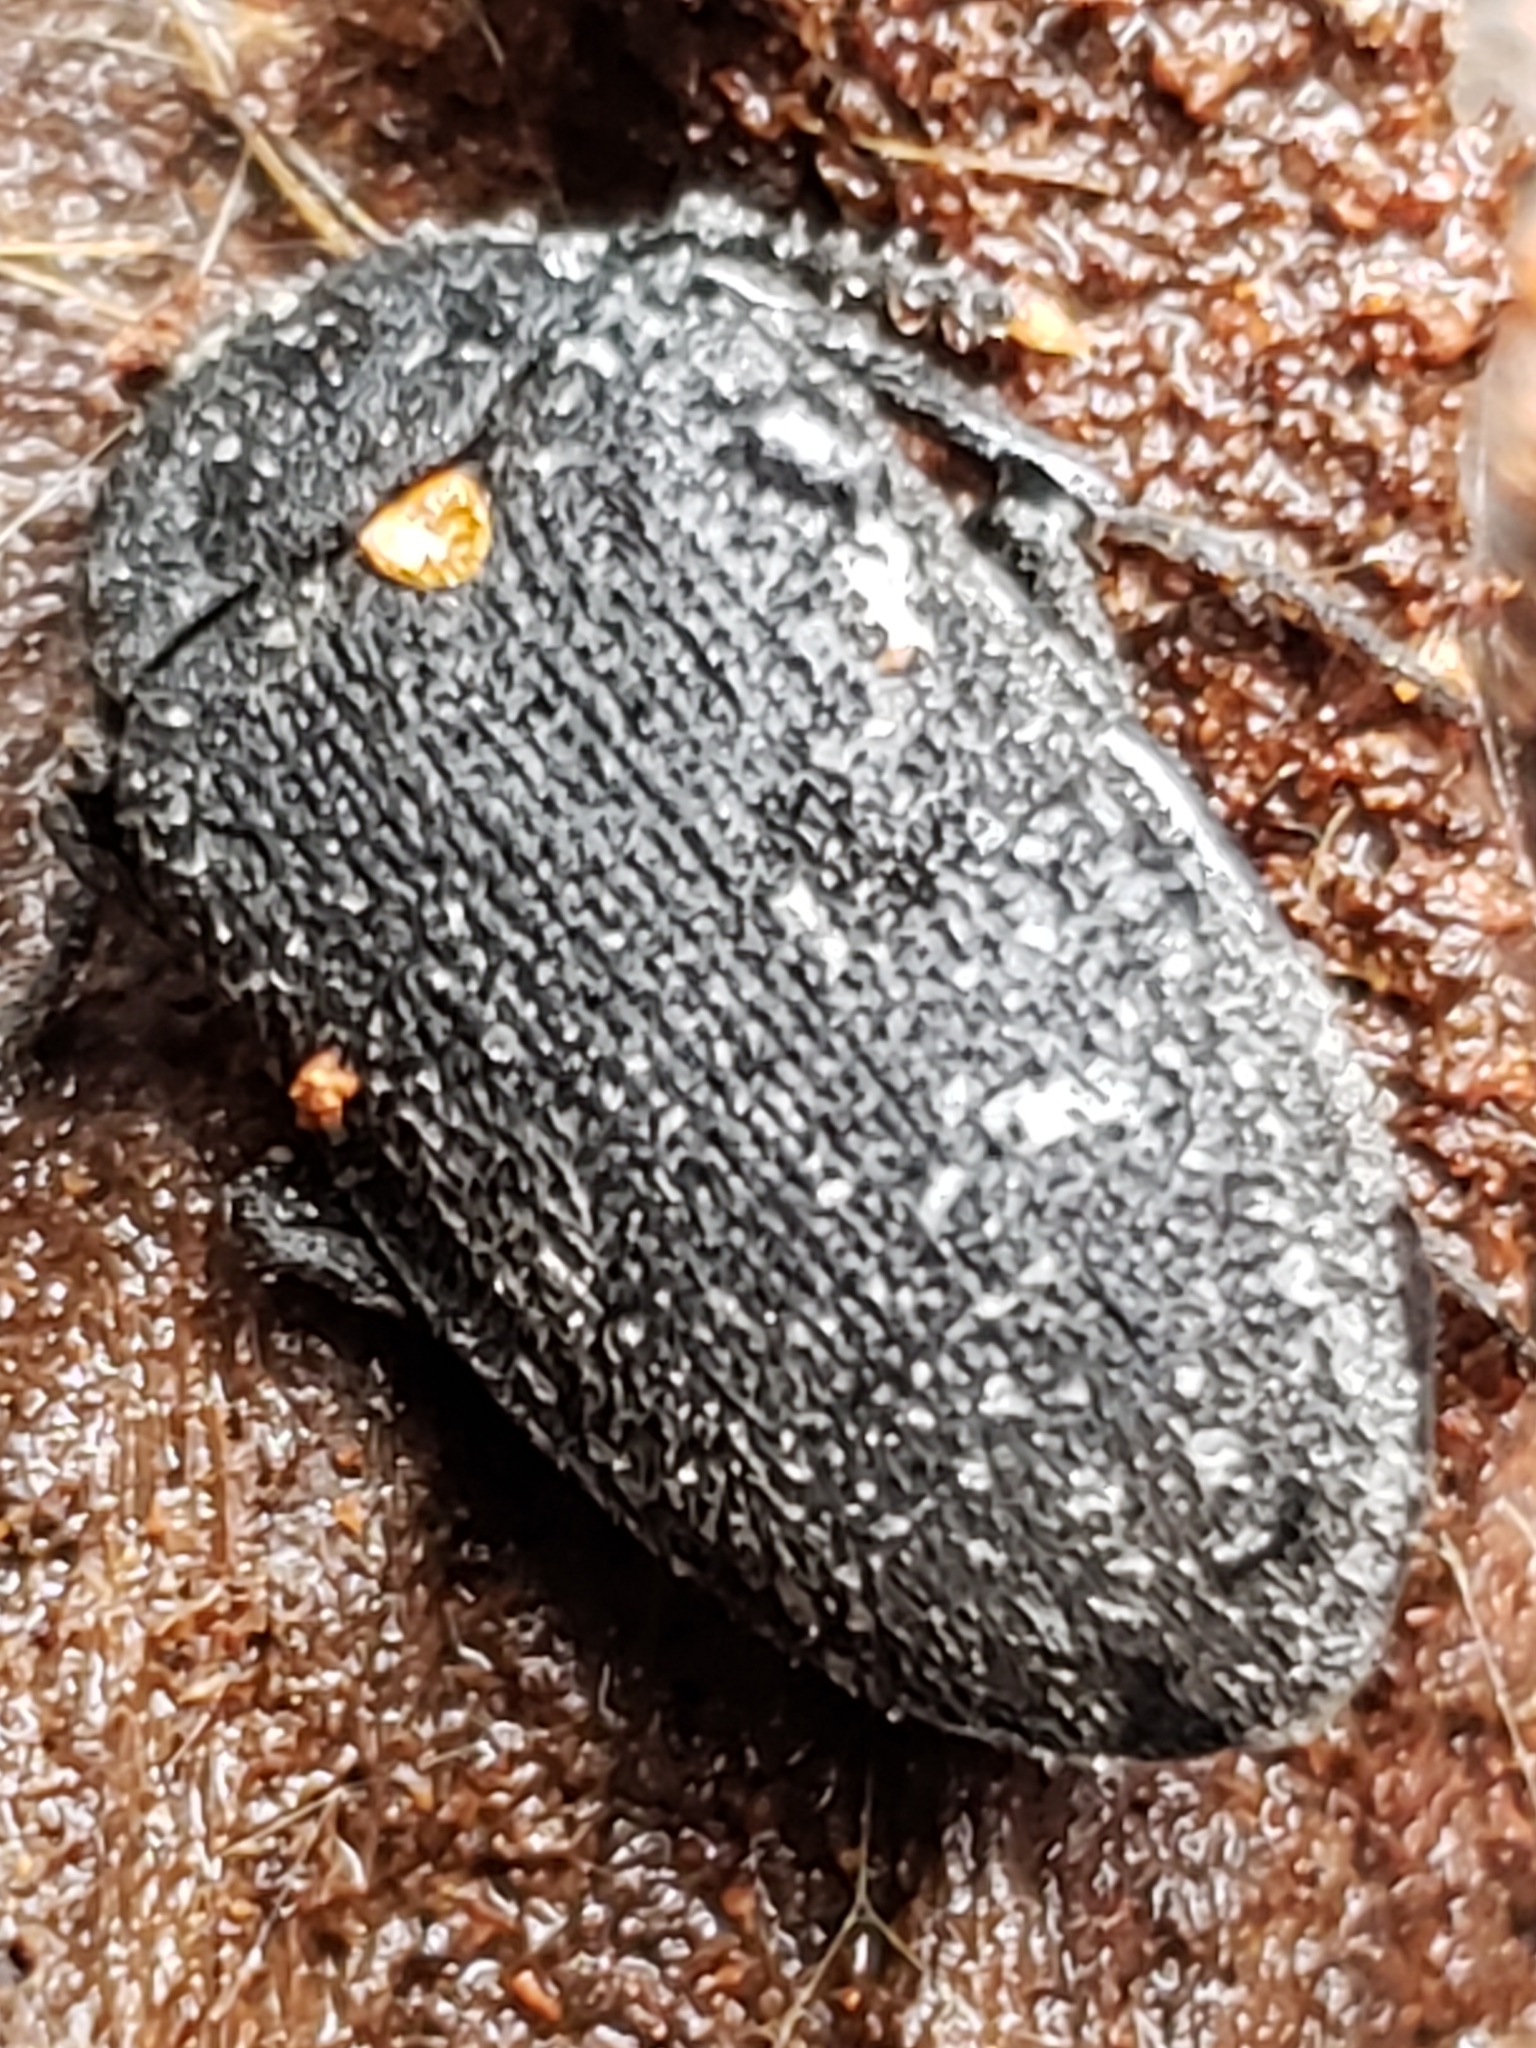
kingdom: Animalia
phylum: Arthropoda
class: Insecta
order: Coleoptera
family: Tetratomidae
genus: Penthe
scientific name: Penthe obliquata
